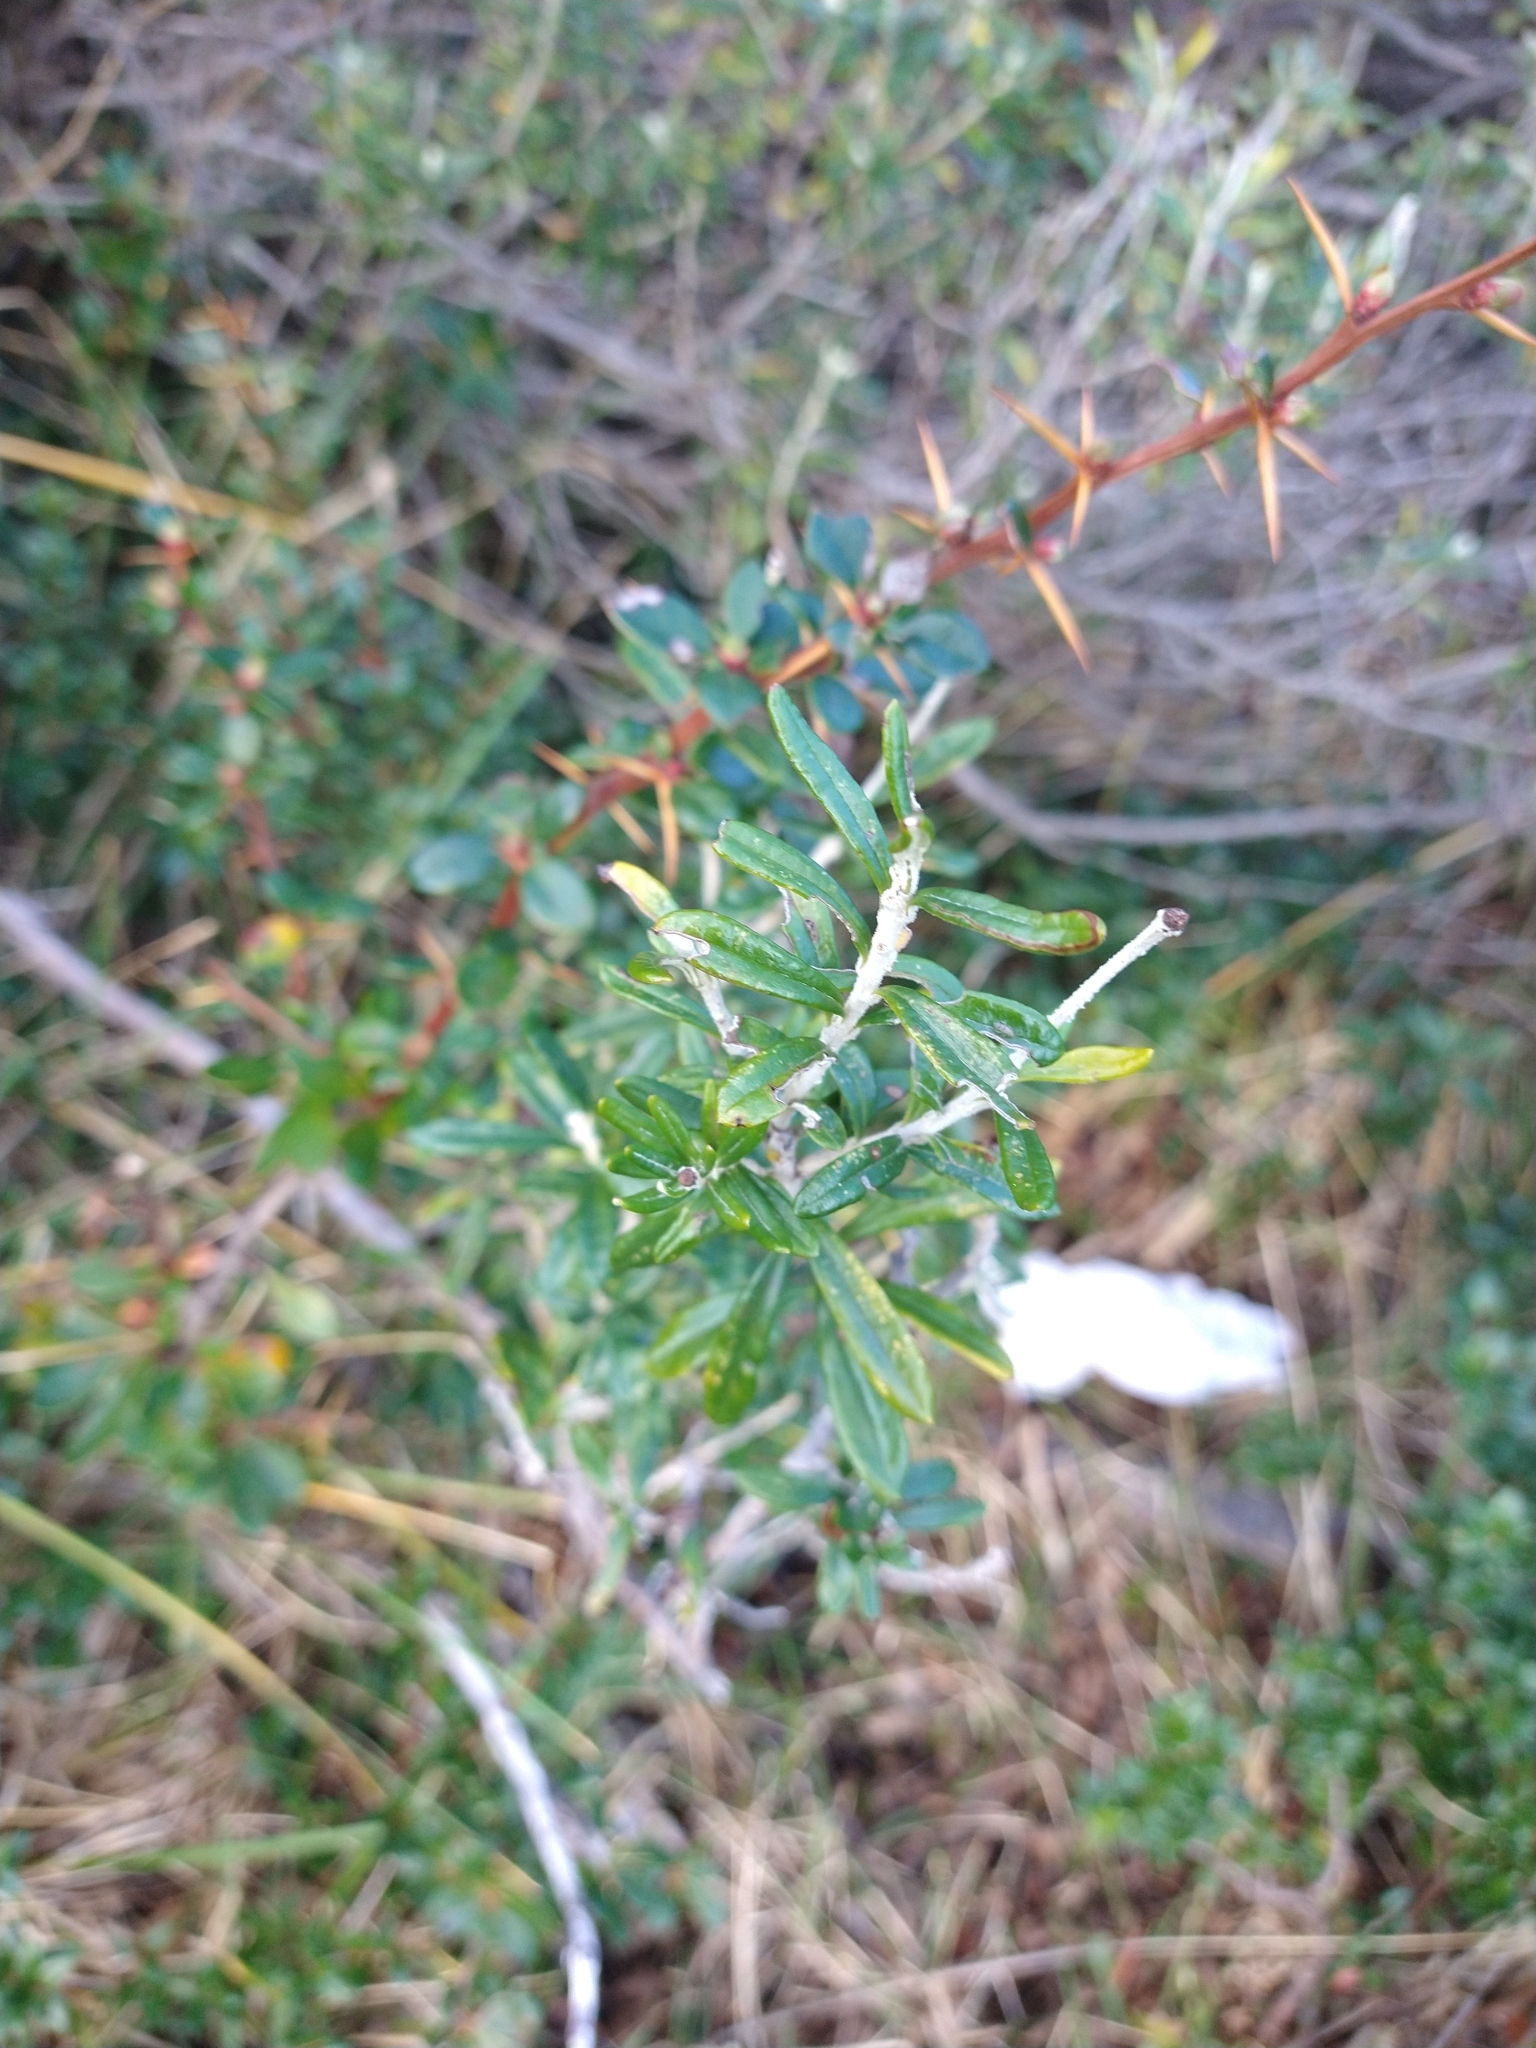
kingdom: Plantae
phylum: Tracheophyta
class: Magnoliopsida
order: Asterales
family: Asteraceae
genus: Chiliotrichum
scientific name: Chiliotrichum diffusum
